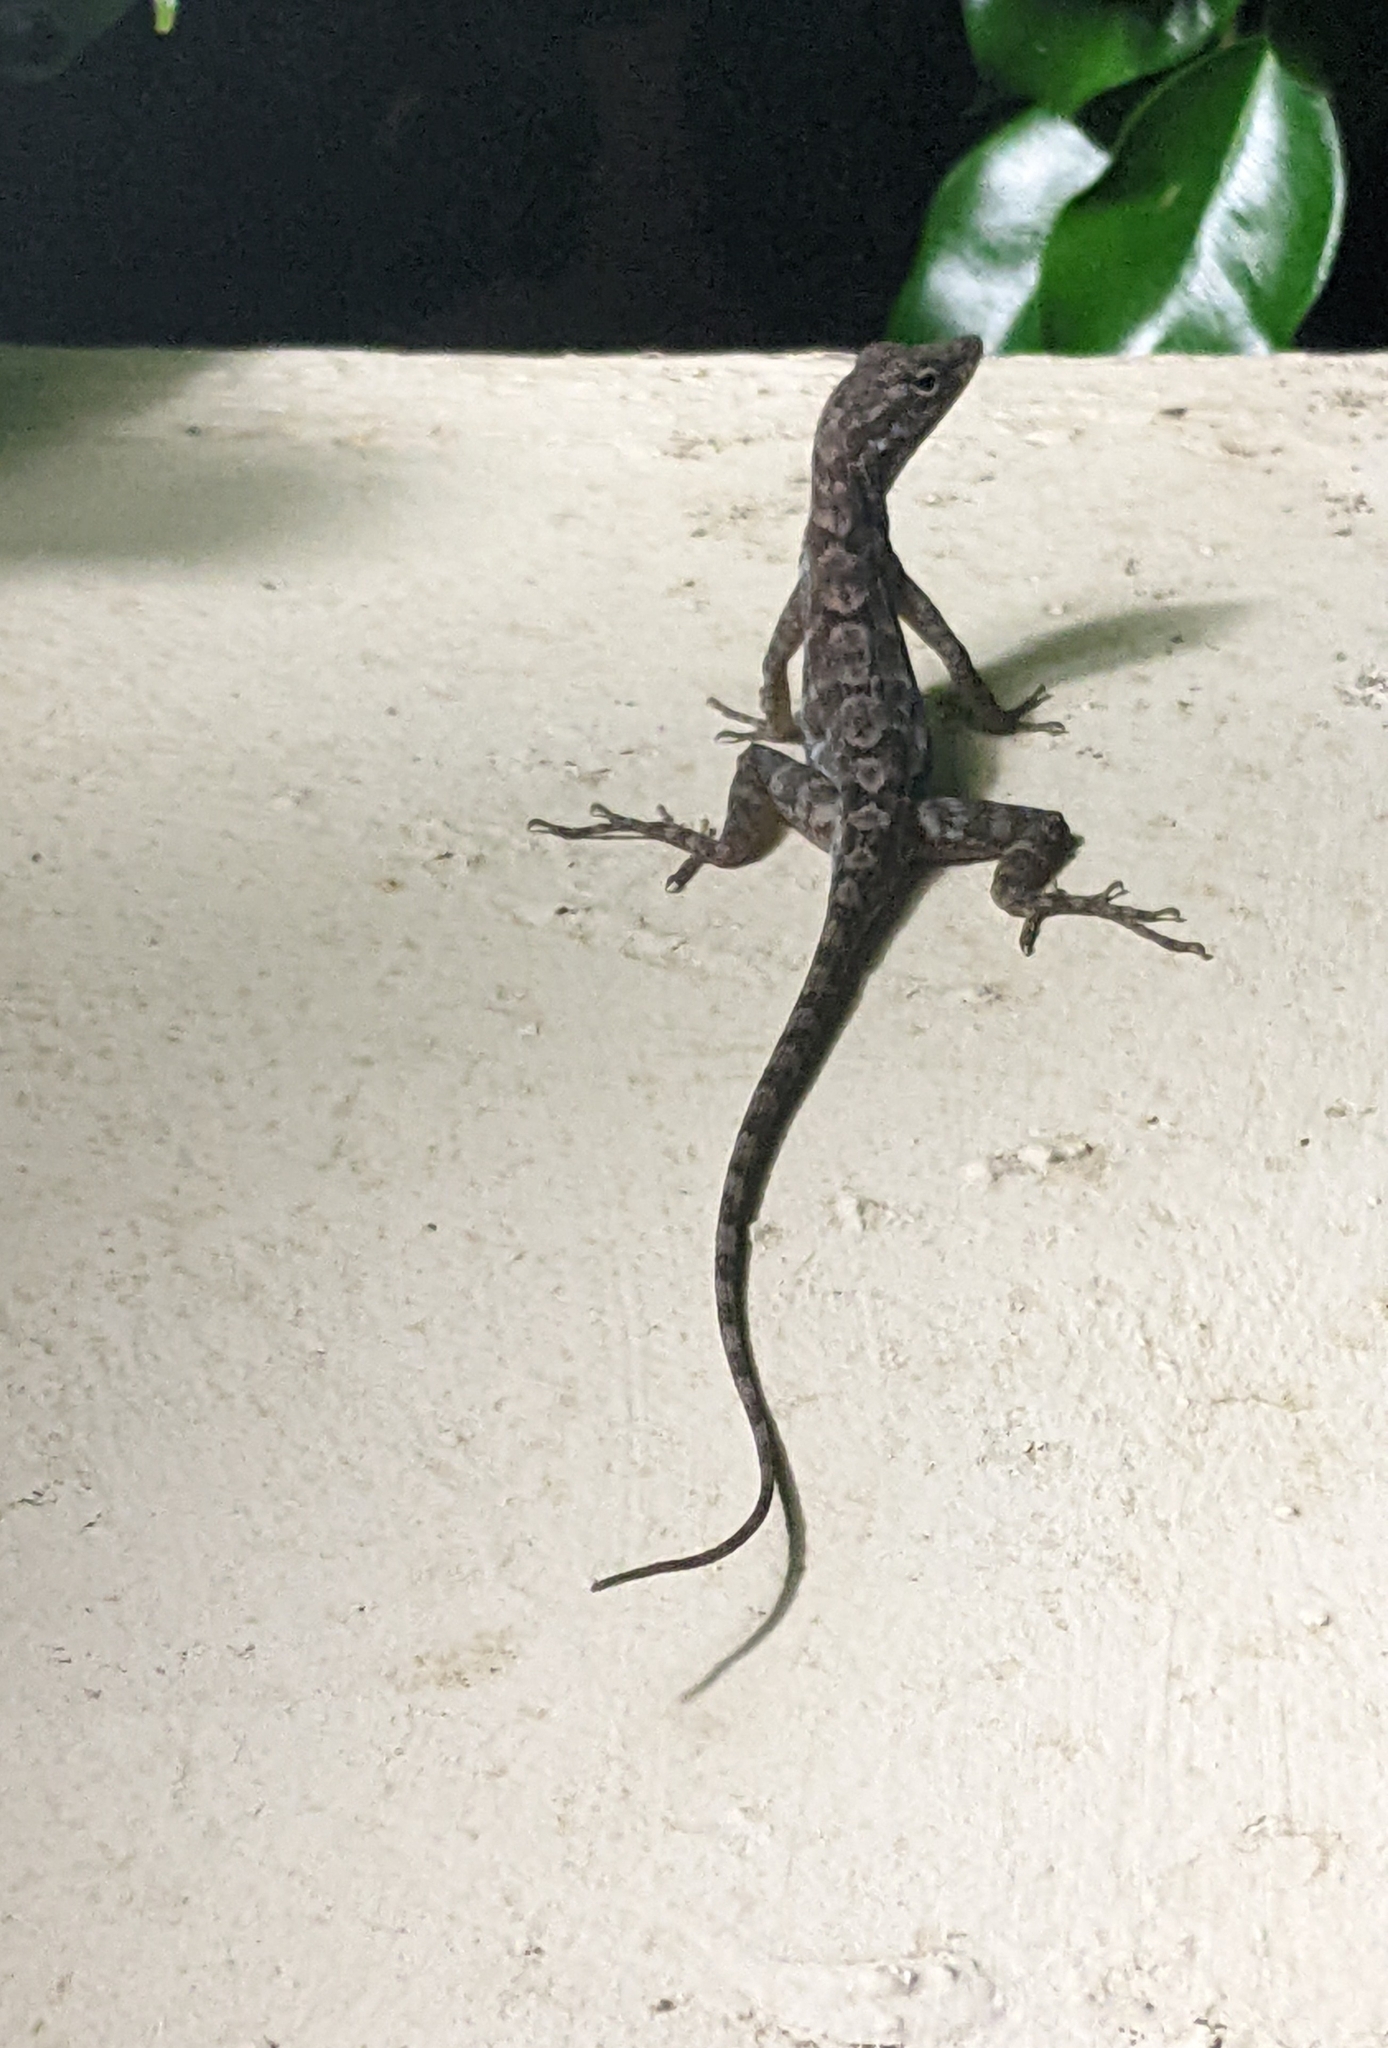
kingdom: Animalia
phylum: Chordata
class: Squamata
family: Dactyloidae
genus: Anolis
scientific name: Anolis lineatus
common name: Striped anole
